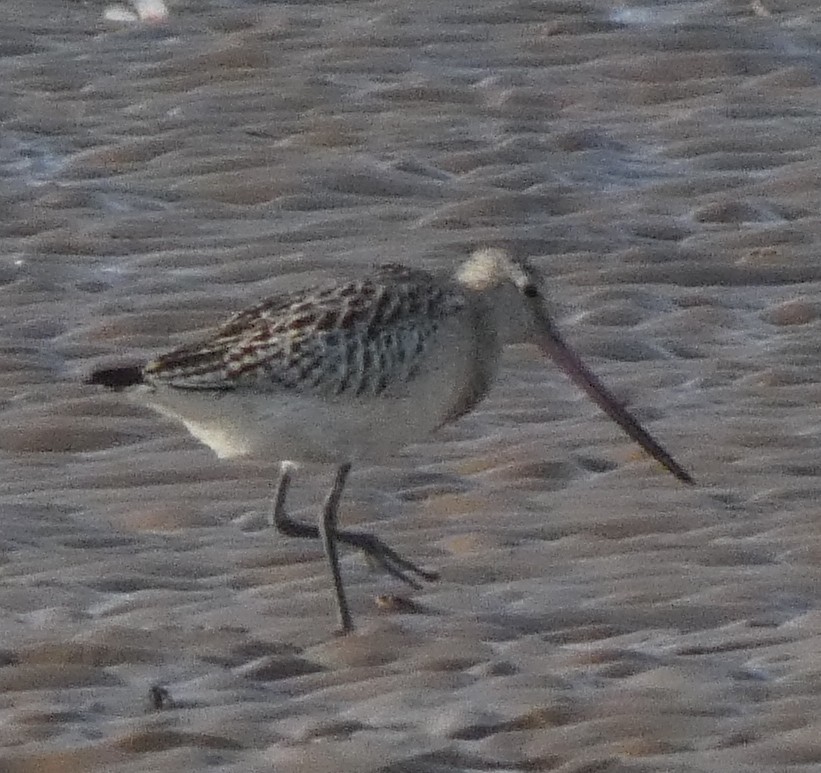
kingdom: Animalia
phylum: Chordata
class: Aves
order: Charadriiformes
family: Scolopacidae
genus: Limosa
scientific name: Limosa lapponica
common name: Bar-tailed godwit
